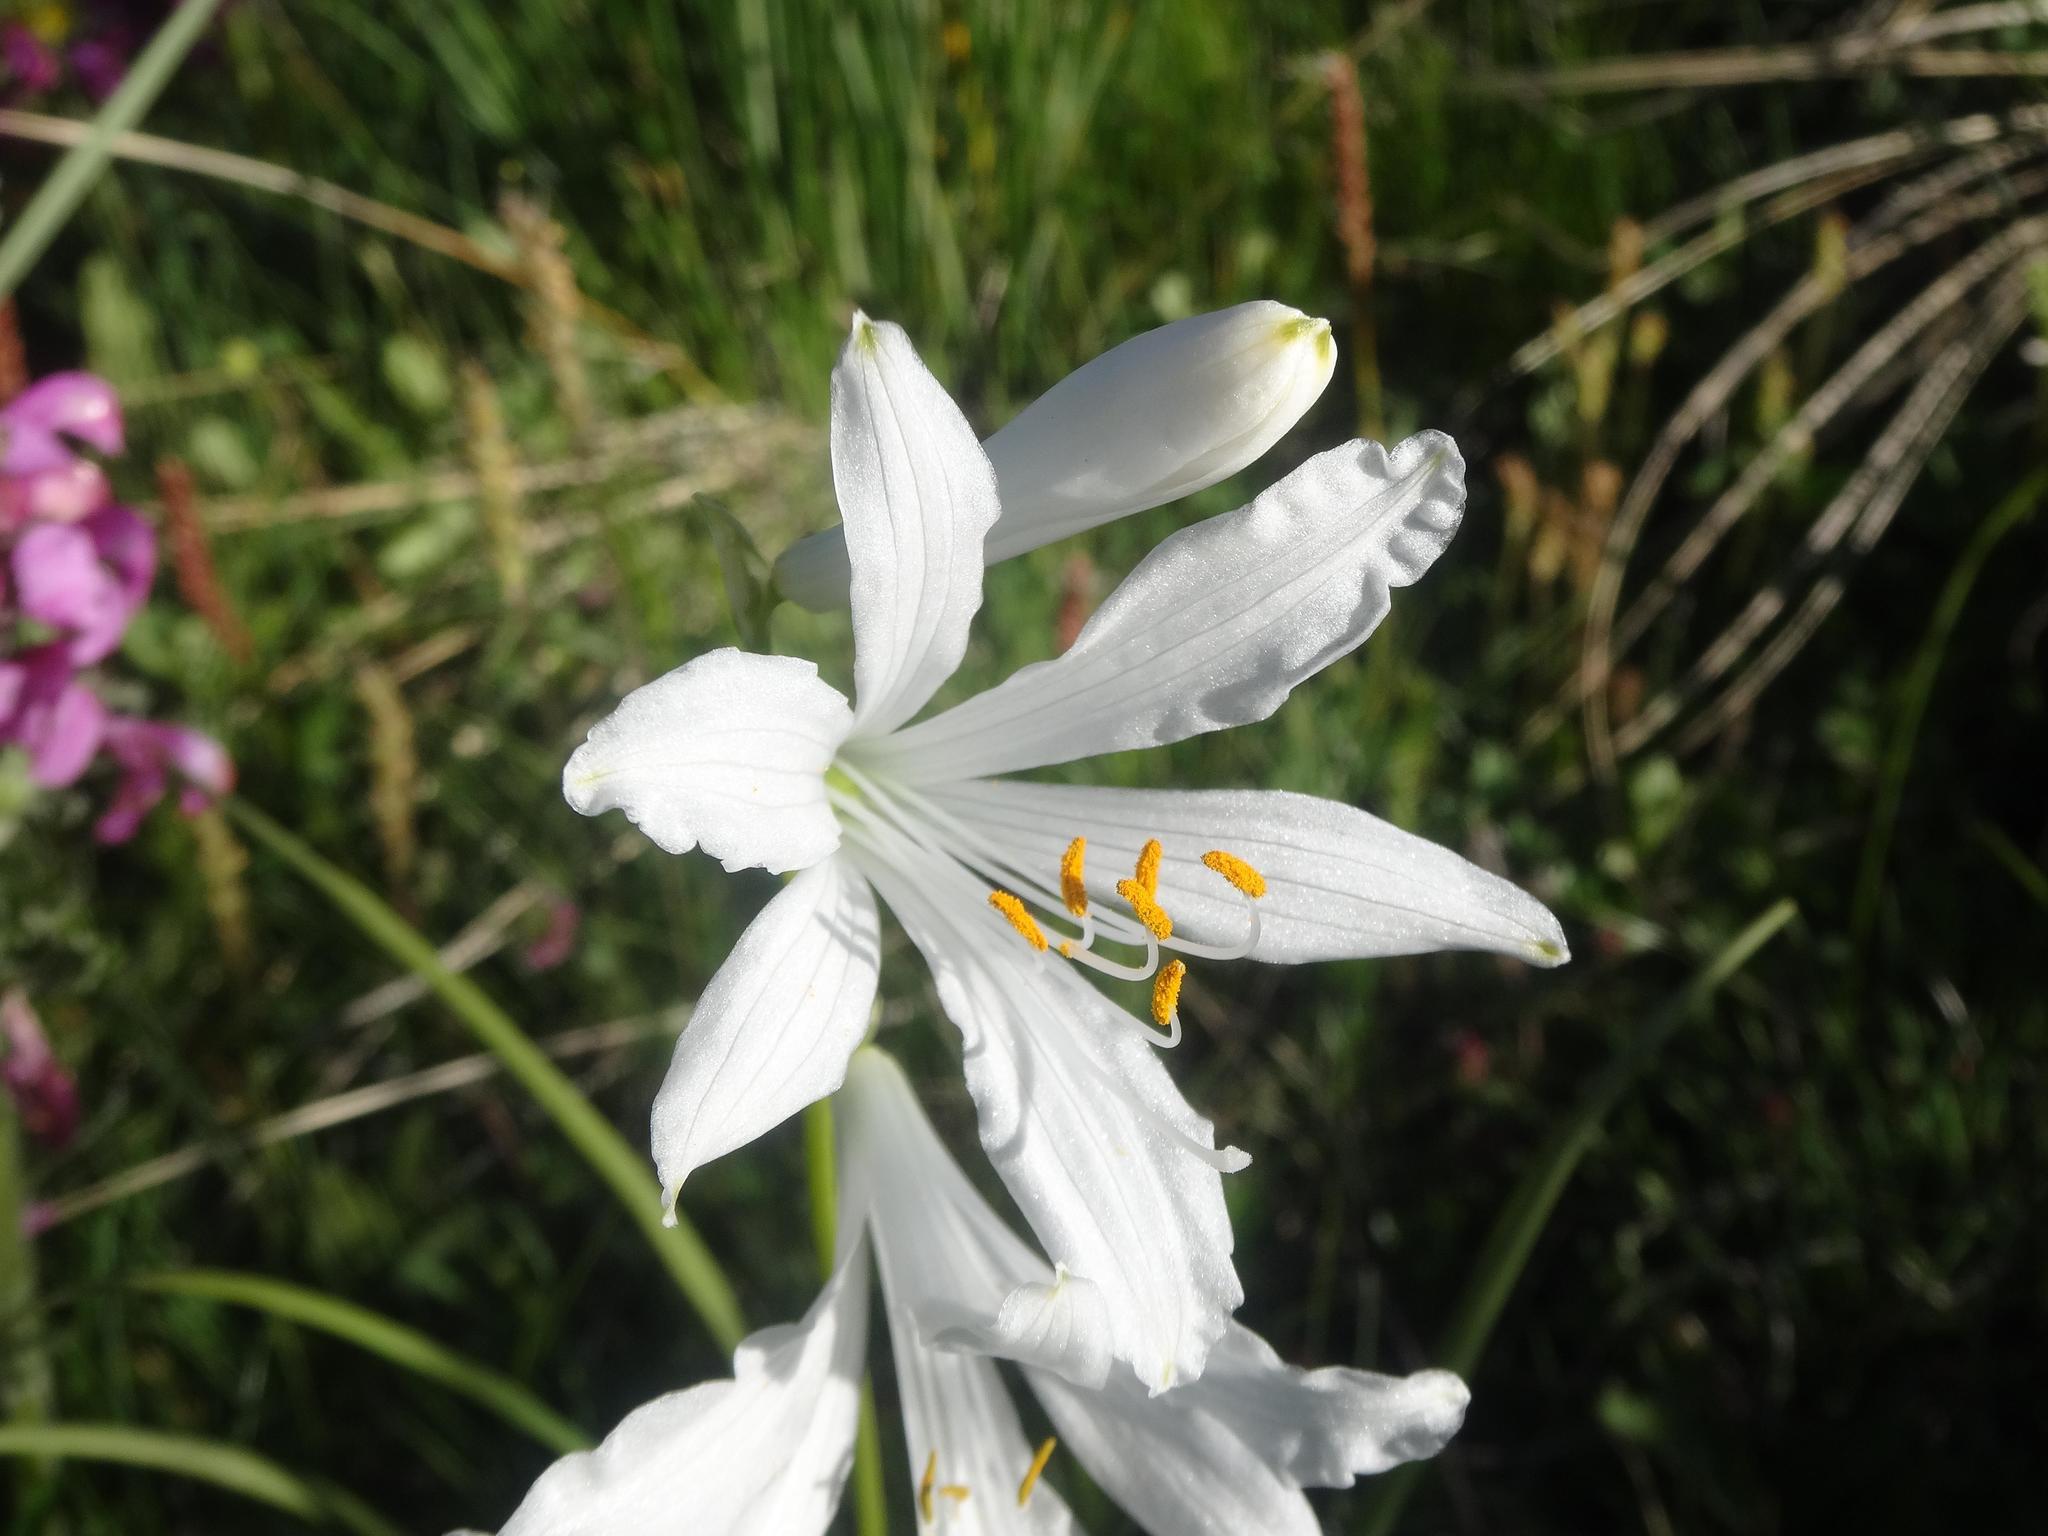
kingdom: Plantae
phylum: Tracheophyta
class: Liliopsida
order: Asparagales
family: Asparagaceae
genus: Paradisea
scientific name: Paradisea liliastrum
